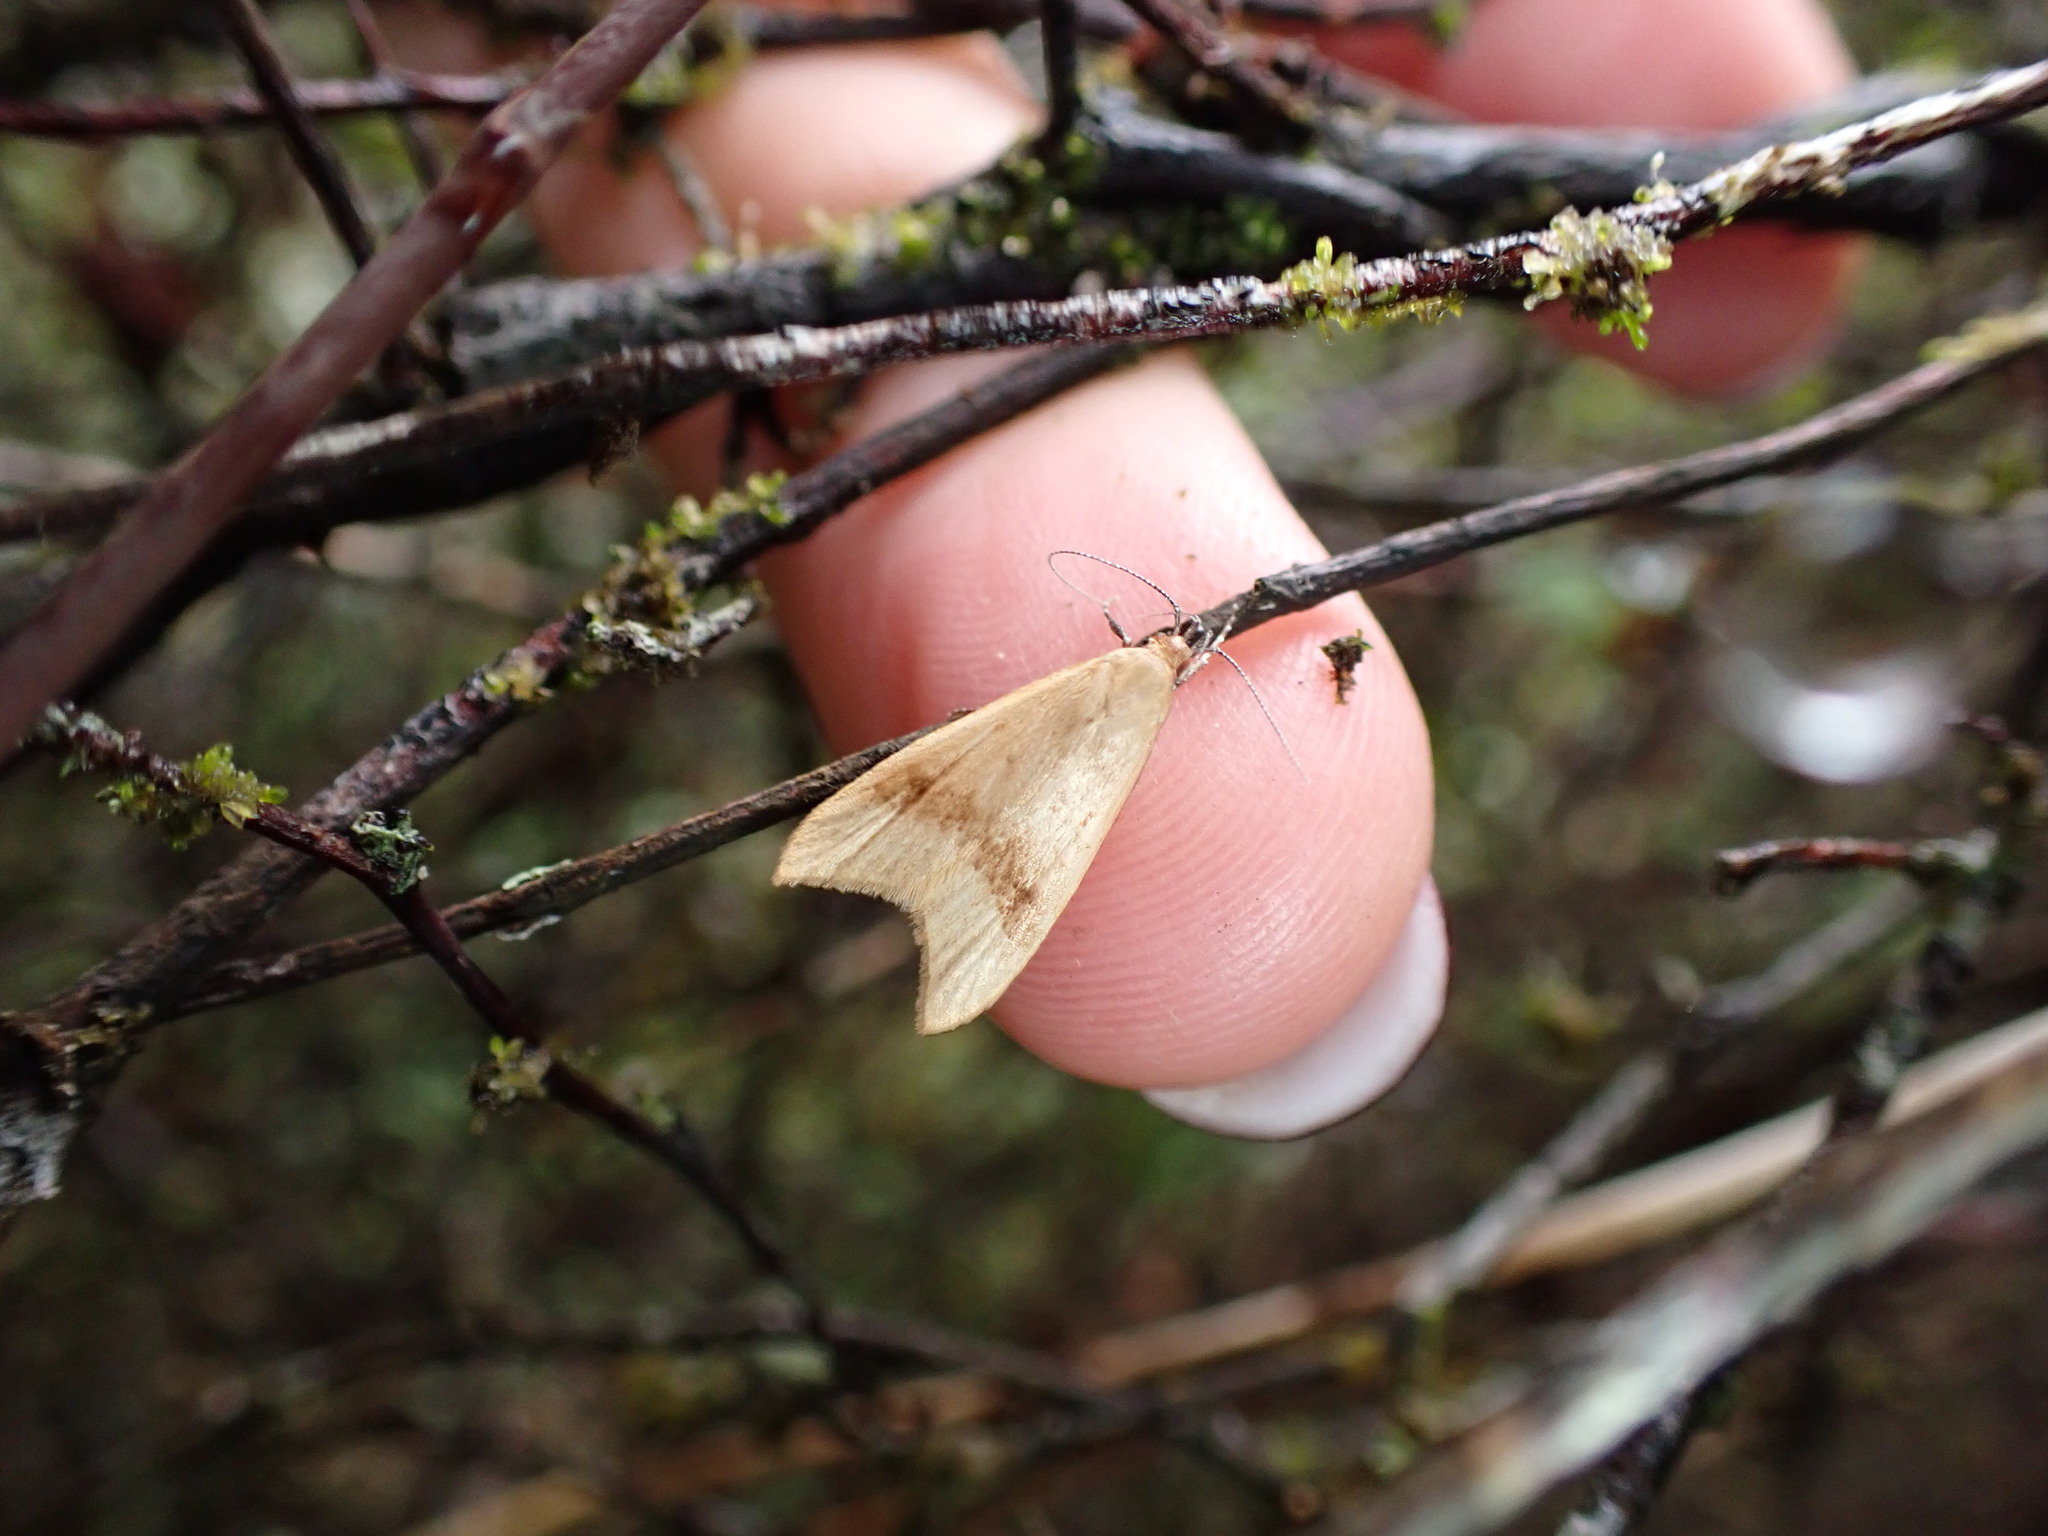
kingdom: Animalia
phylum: Arthropoda
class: Insecta
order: Lepidoptera
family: Oecophoridae
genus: Gymnobathra
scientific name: Gymnobathra hyetodes
